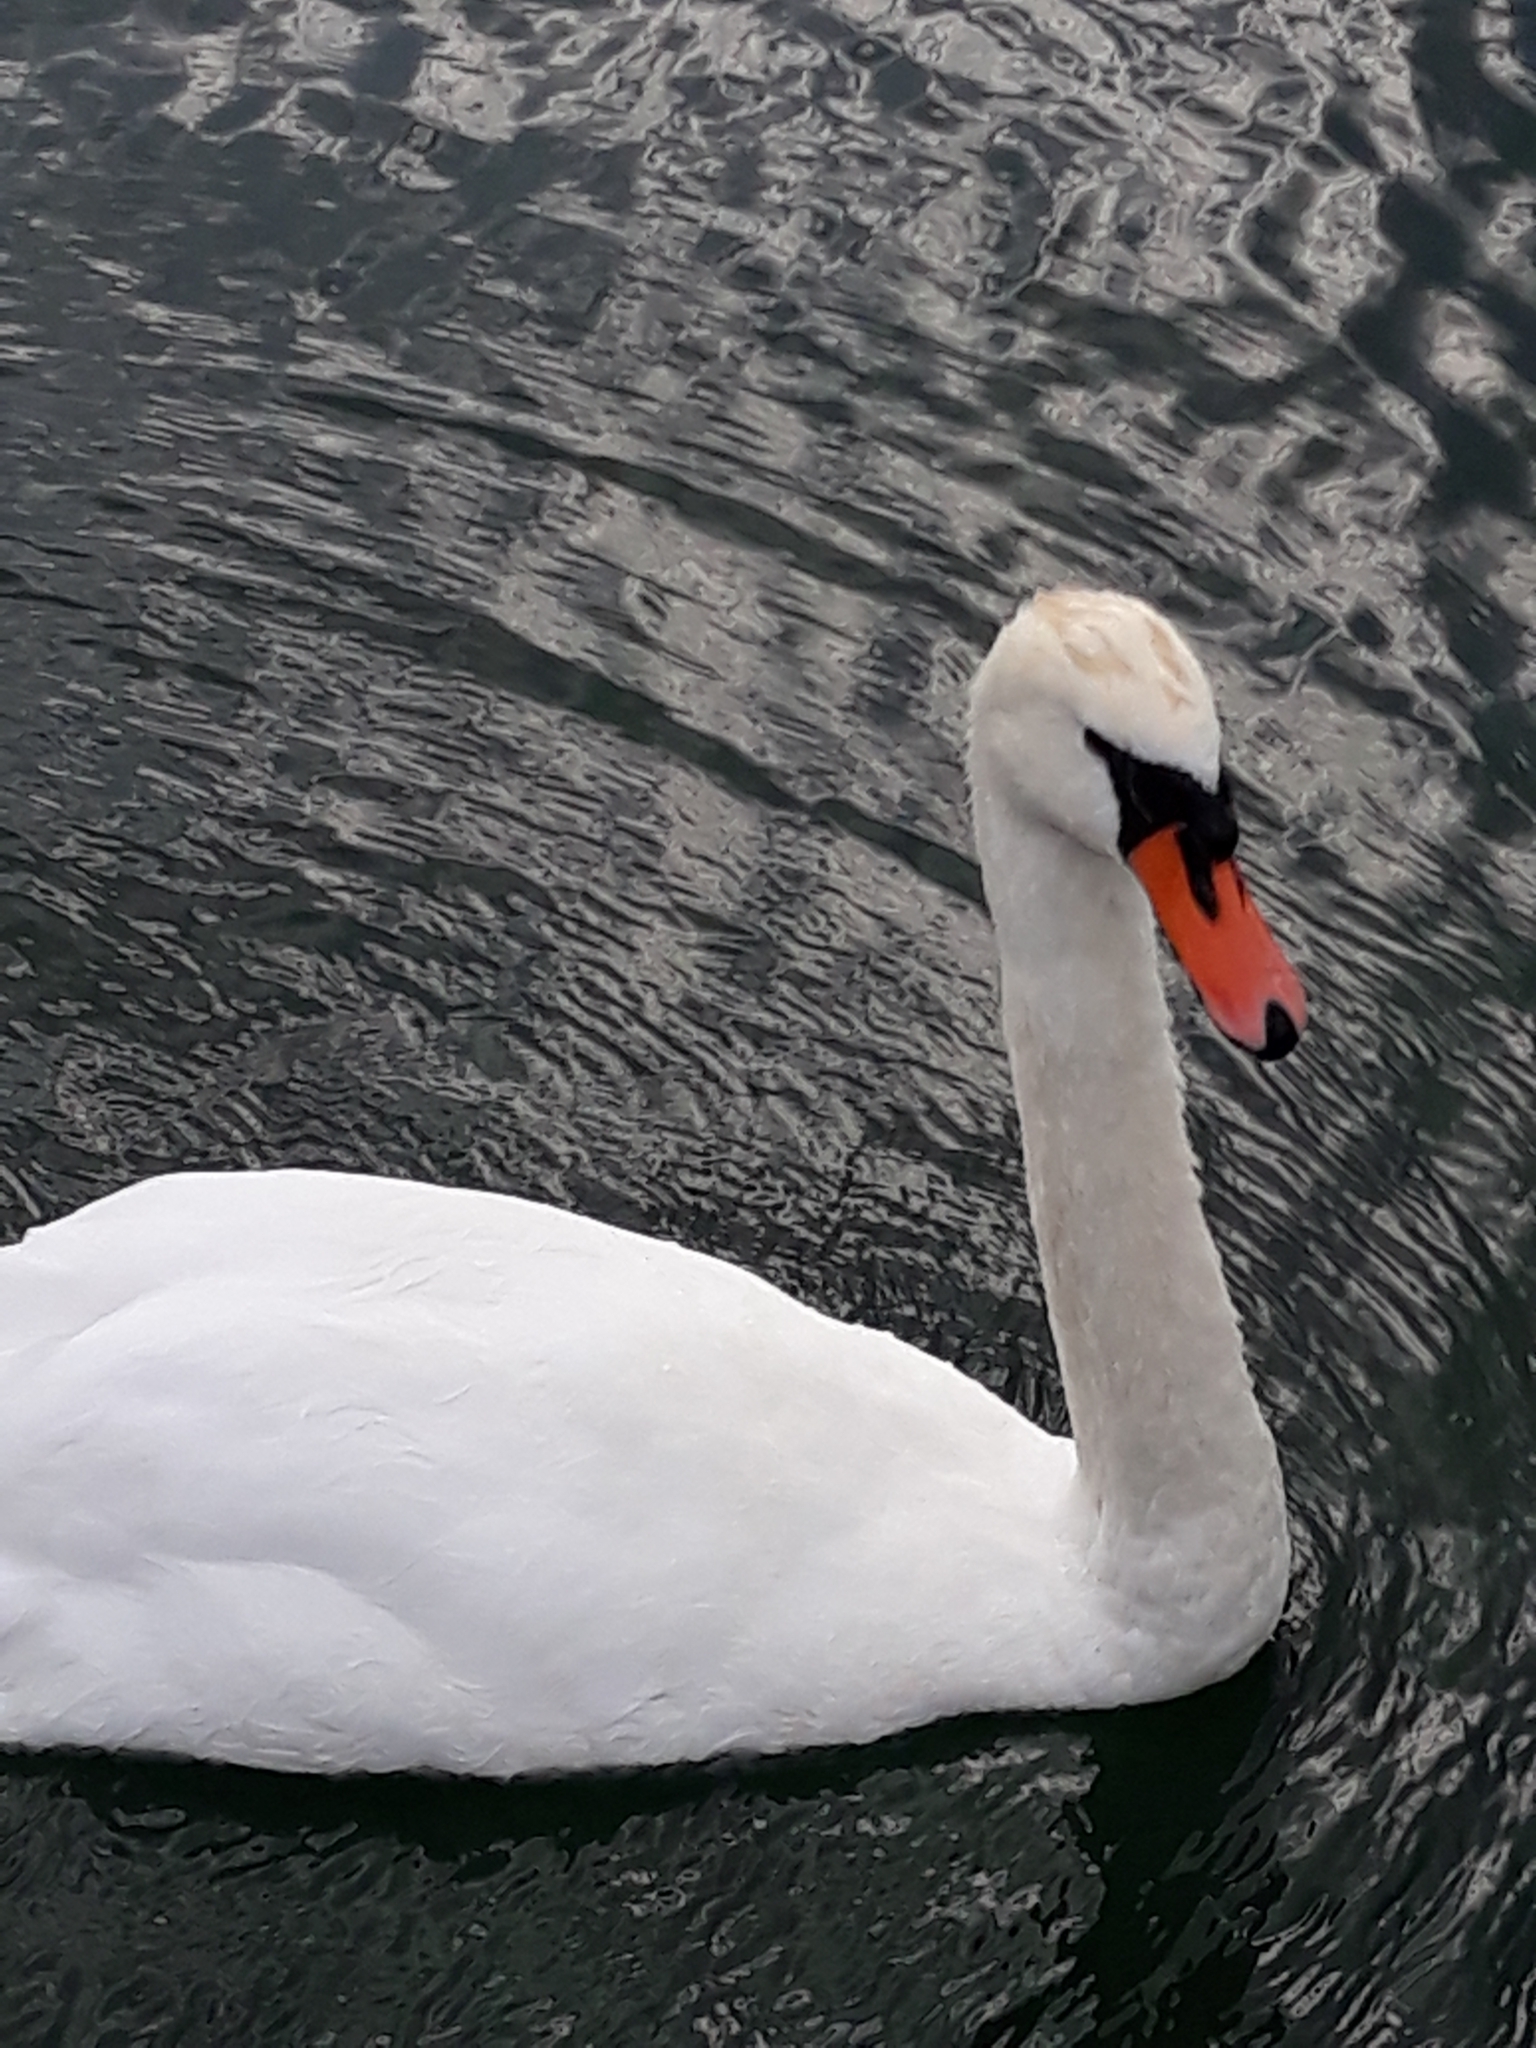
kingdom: Animalia
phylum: Chordata
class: Aves
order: Anseriformes
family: Anatidae
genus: Cygnus
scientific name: Cygnus olor
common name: Mute swan
